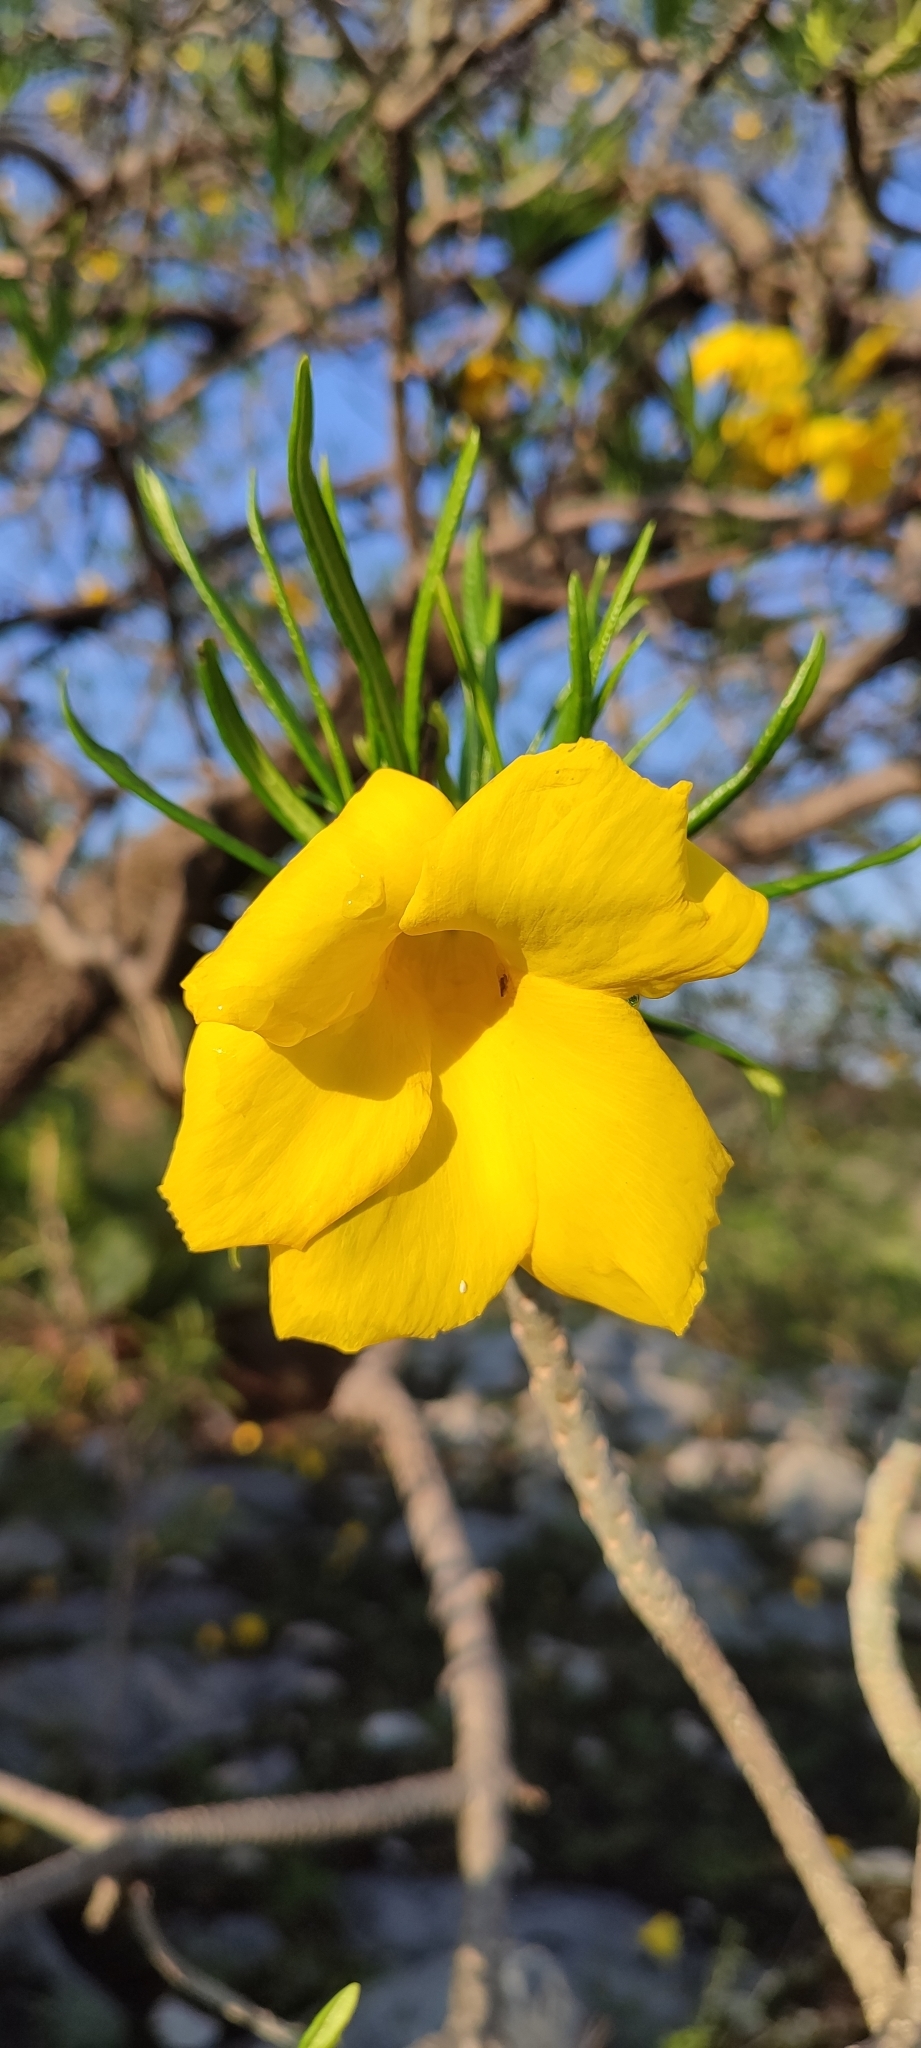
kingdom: Plantae
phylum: Tracheophyta
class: Magnoliopsida
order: Gentianales
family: Apocynaceae
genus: Cascabela
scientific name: Cascabela thevetioides
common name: Yellow oleander
